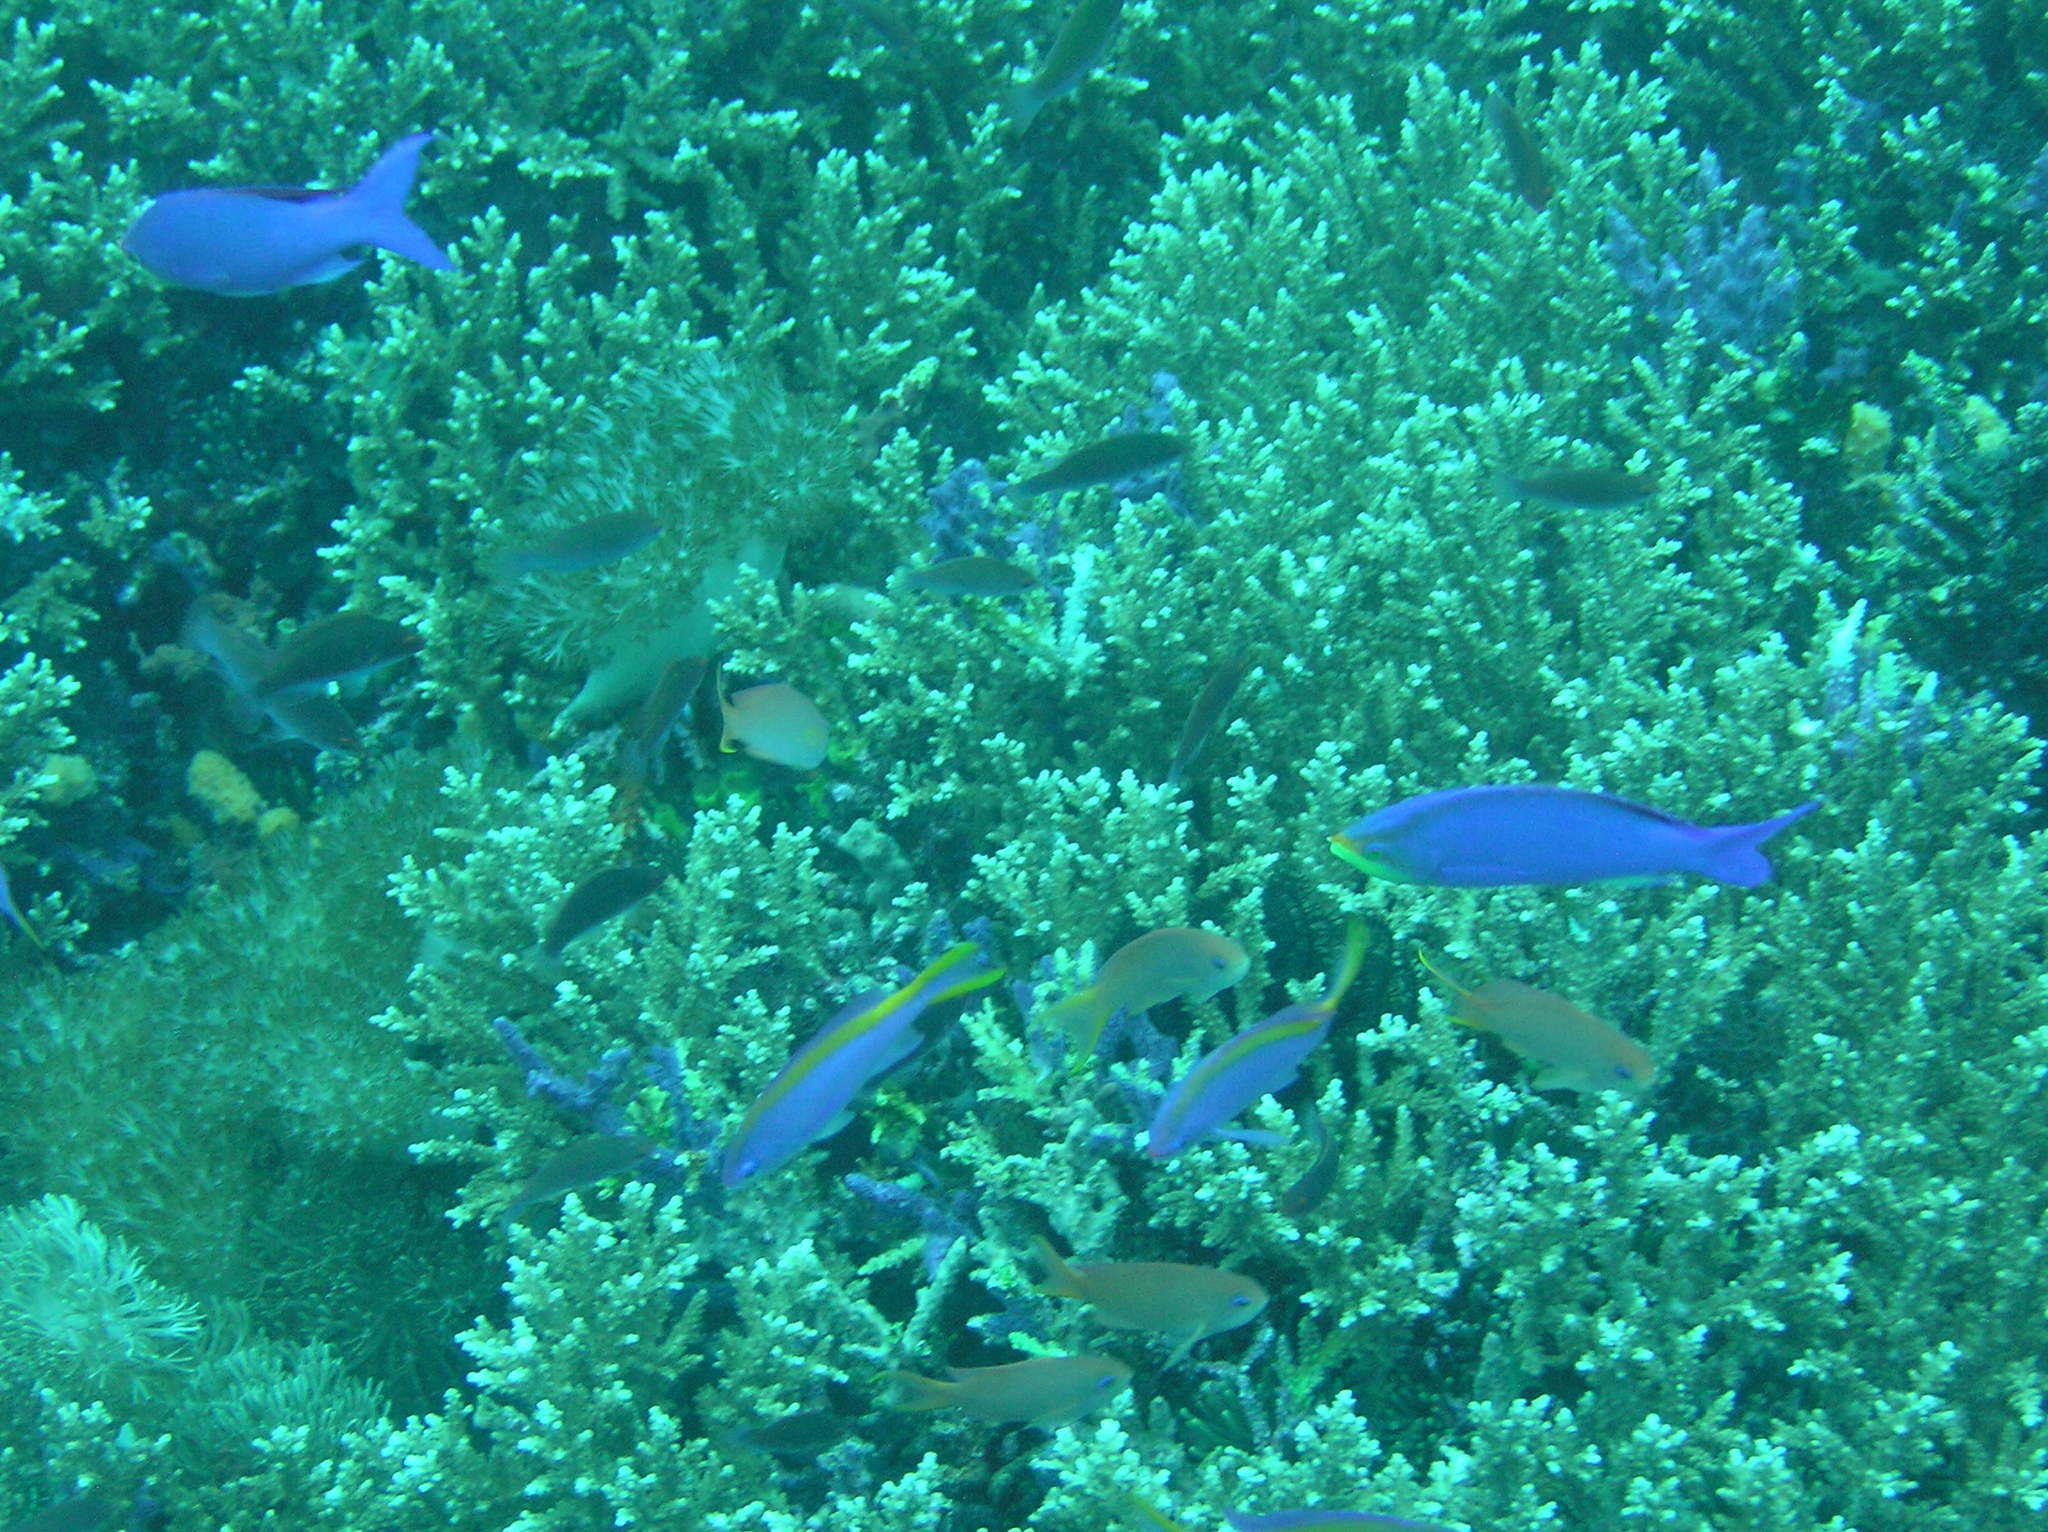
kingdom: Animalia
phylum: Chordata
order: Perciformes
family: Serranidae
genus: Pseudanthias
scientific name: Pseudanthias tuka
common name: Purple queen
